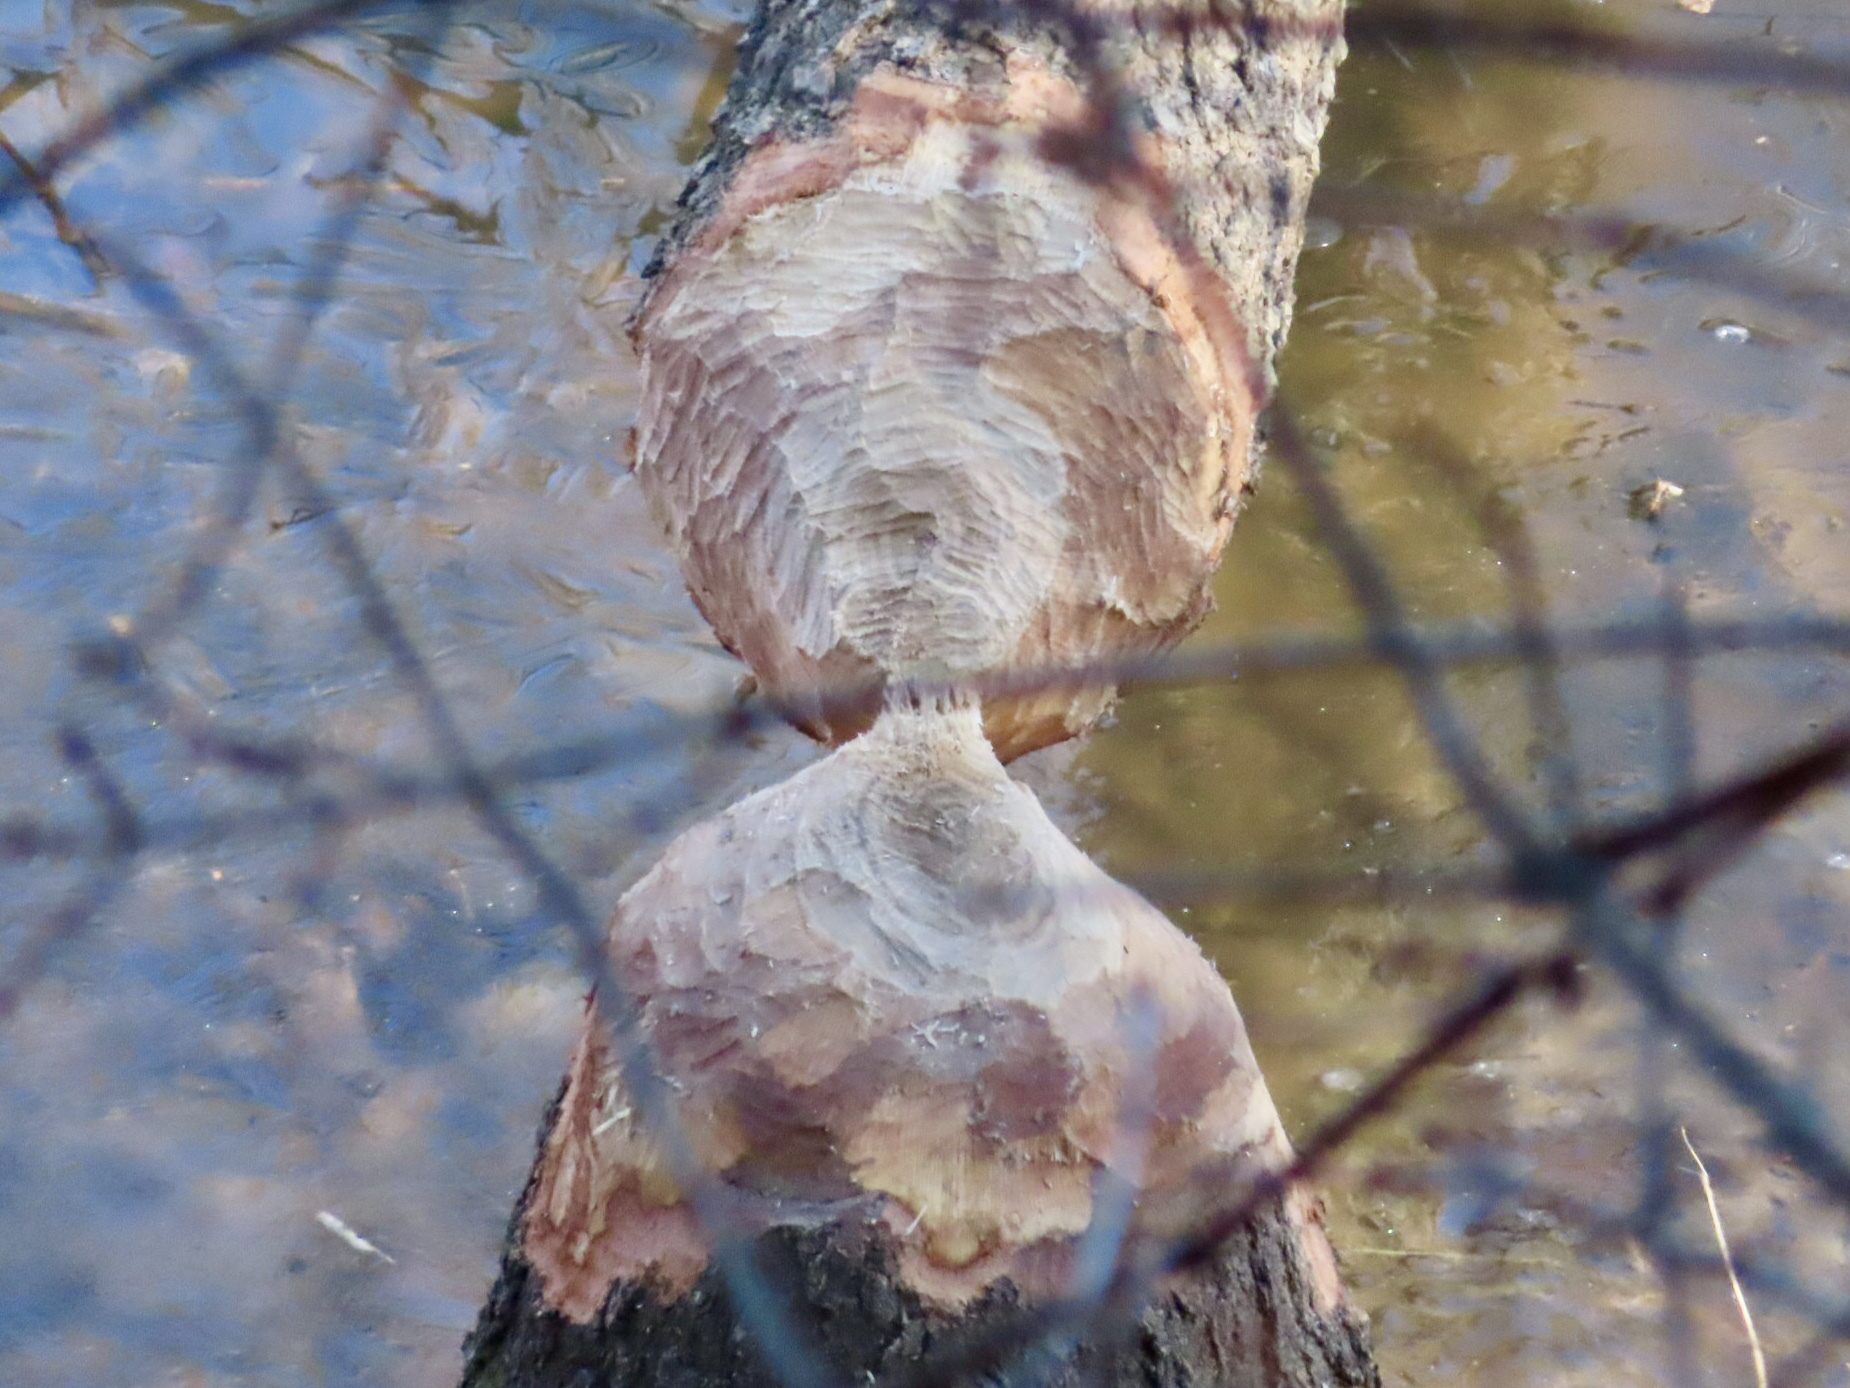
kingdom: Animalia
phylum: Chordata
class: Mammalia
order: Rodentia
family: Castoridae
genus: Castor
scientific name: Castor canadensis
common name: American beaver
